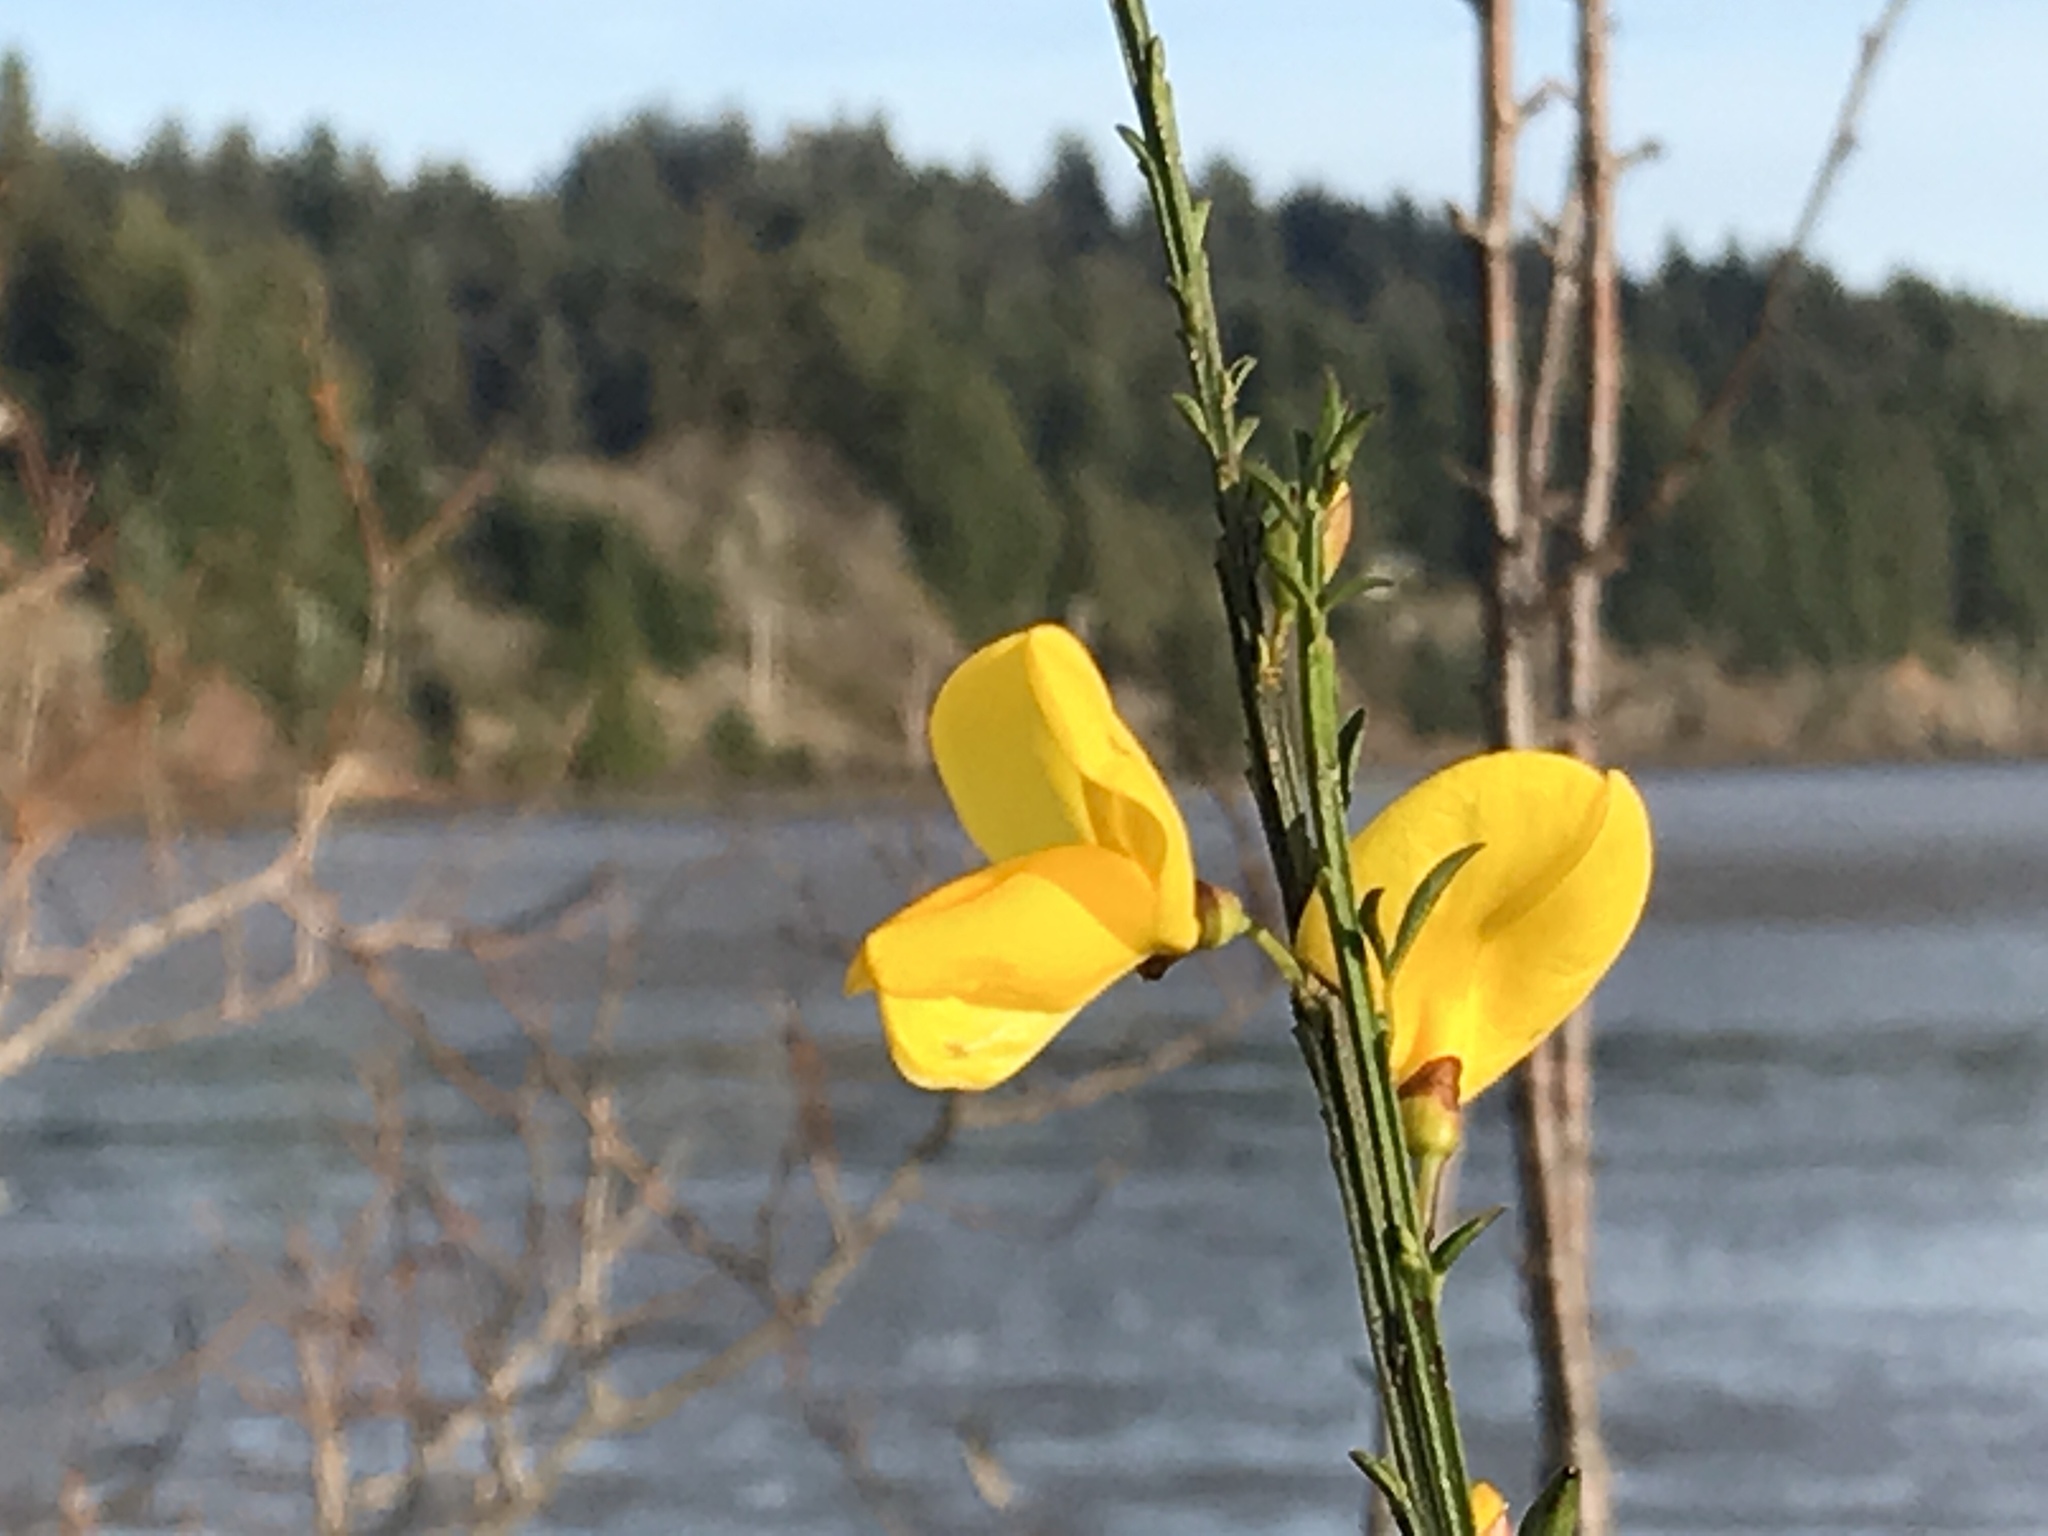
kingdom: Plantae
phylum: Tracheophyta
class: Magnoliopsida
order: Fabales
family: Fabaceae
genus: Cytisus
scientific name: Cytisus scoparius
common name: Scotch broom
